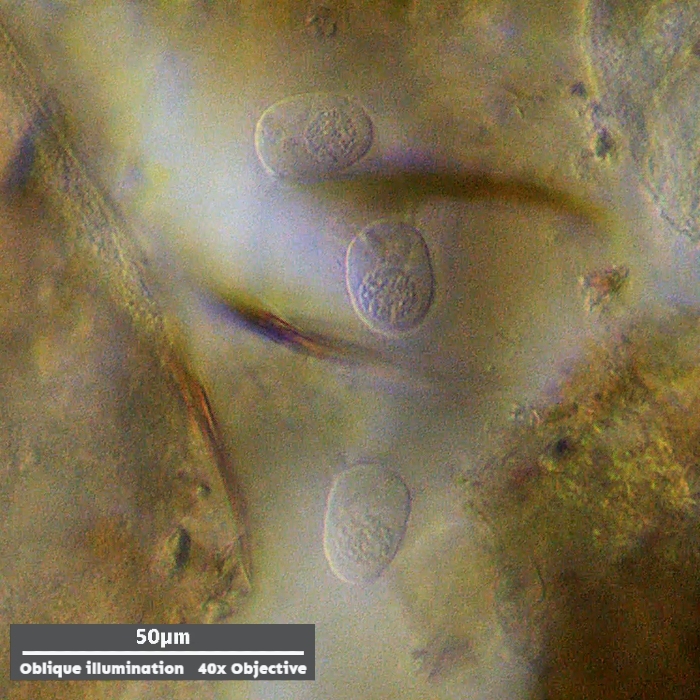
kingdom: Chromista
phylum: Ciliophora
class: Kinetofragminophora
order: Suctorida
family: Podophryidae
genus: Sphaerophrya
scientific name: Sphaerophrya doliolum
